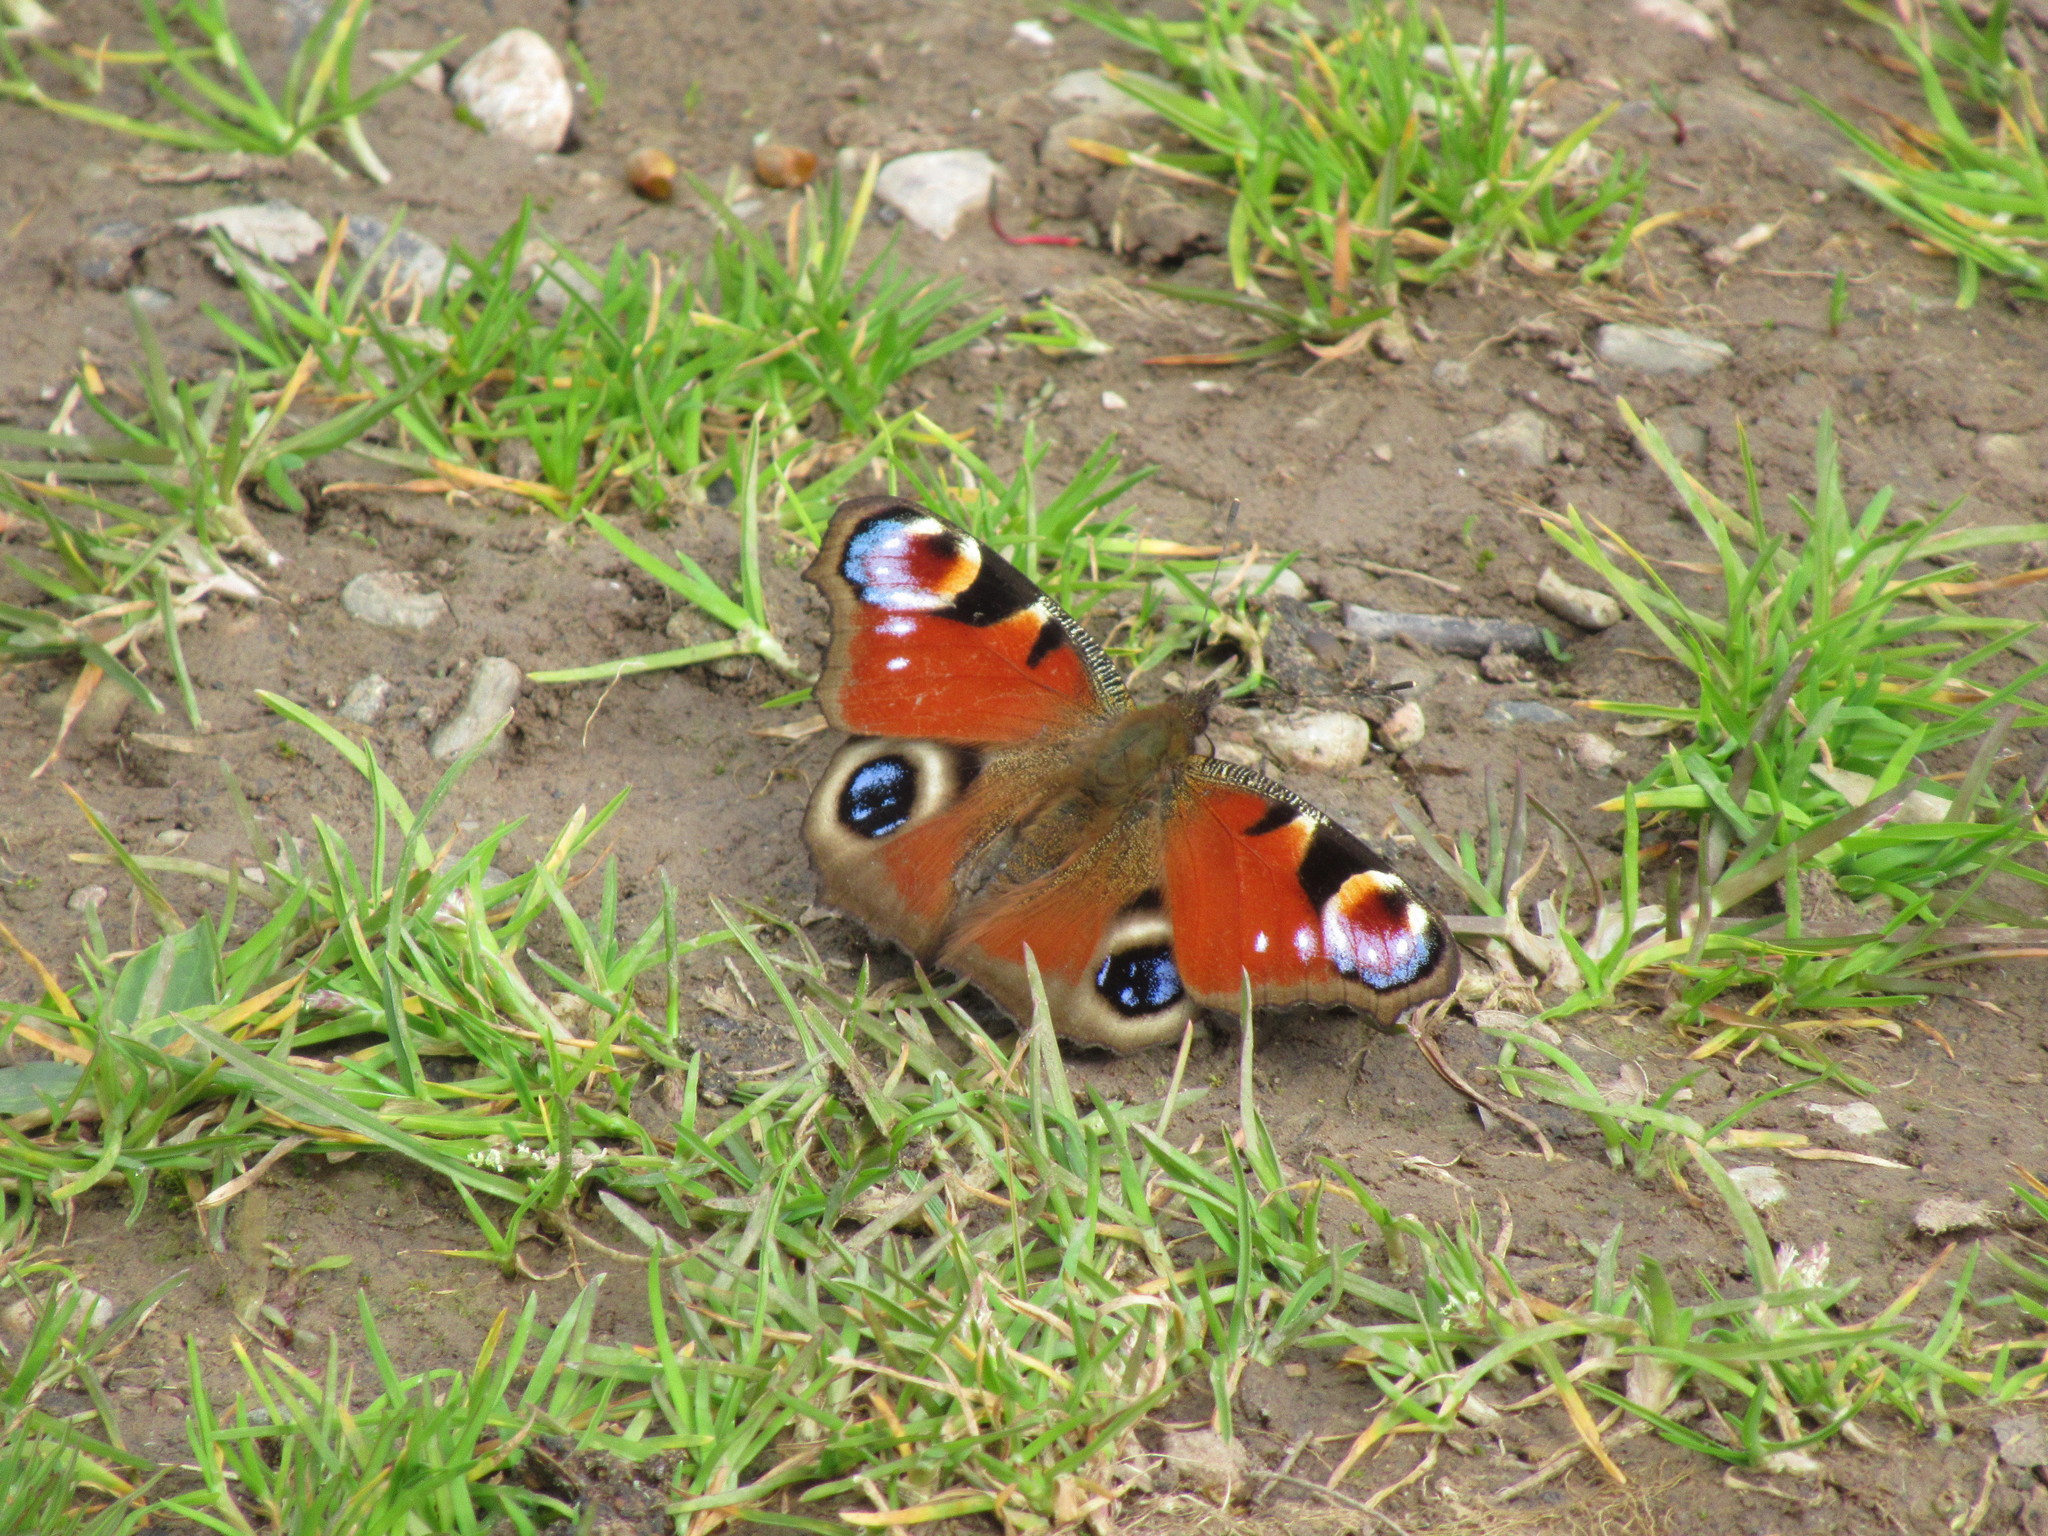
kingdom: Animalia
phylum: Arthropoda
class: Insecta
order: Lepidoptera
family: Nymphalidae
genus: Aglais
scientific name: Aglais io
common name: Peacock
